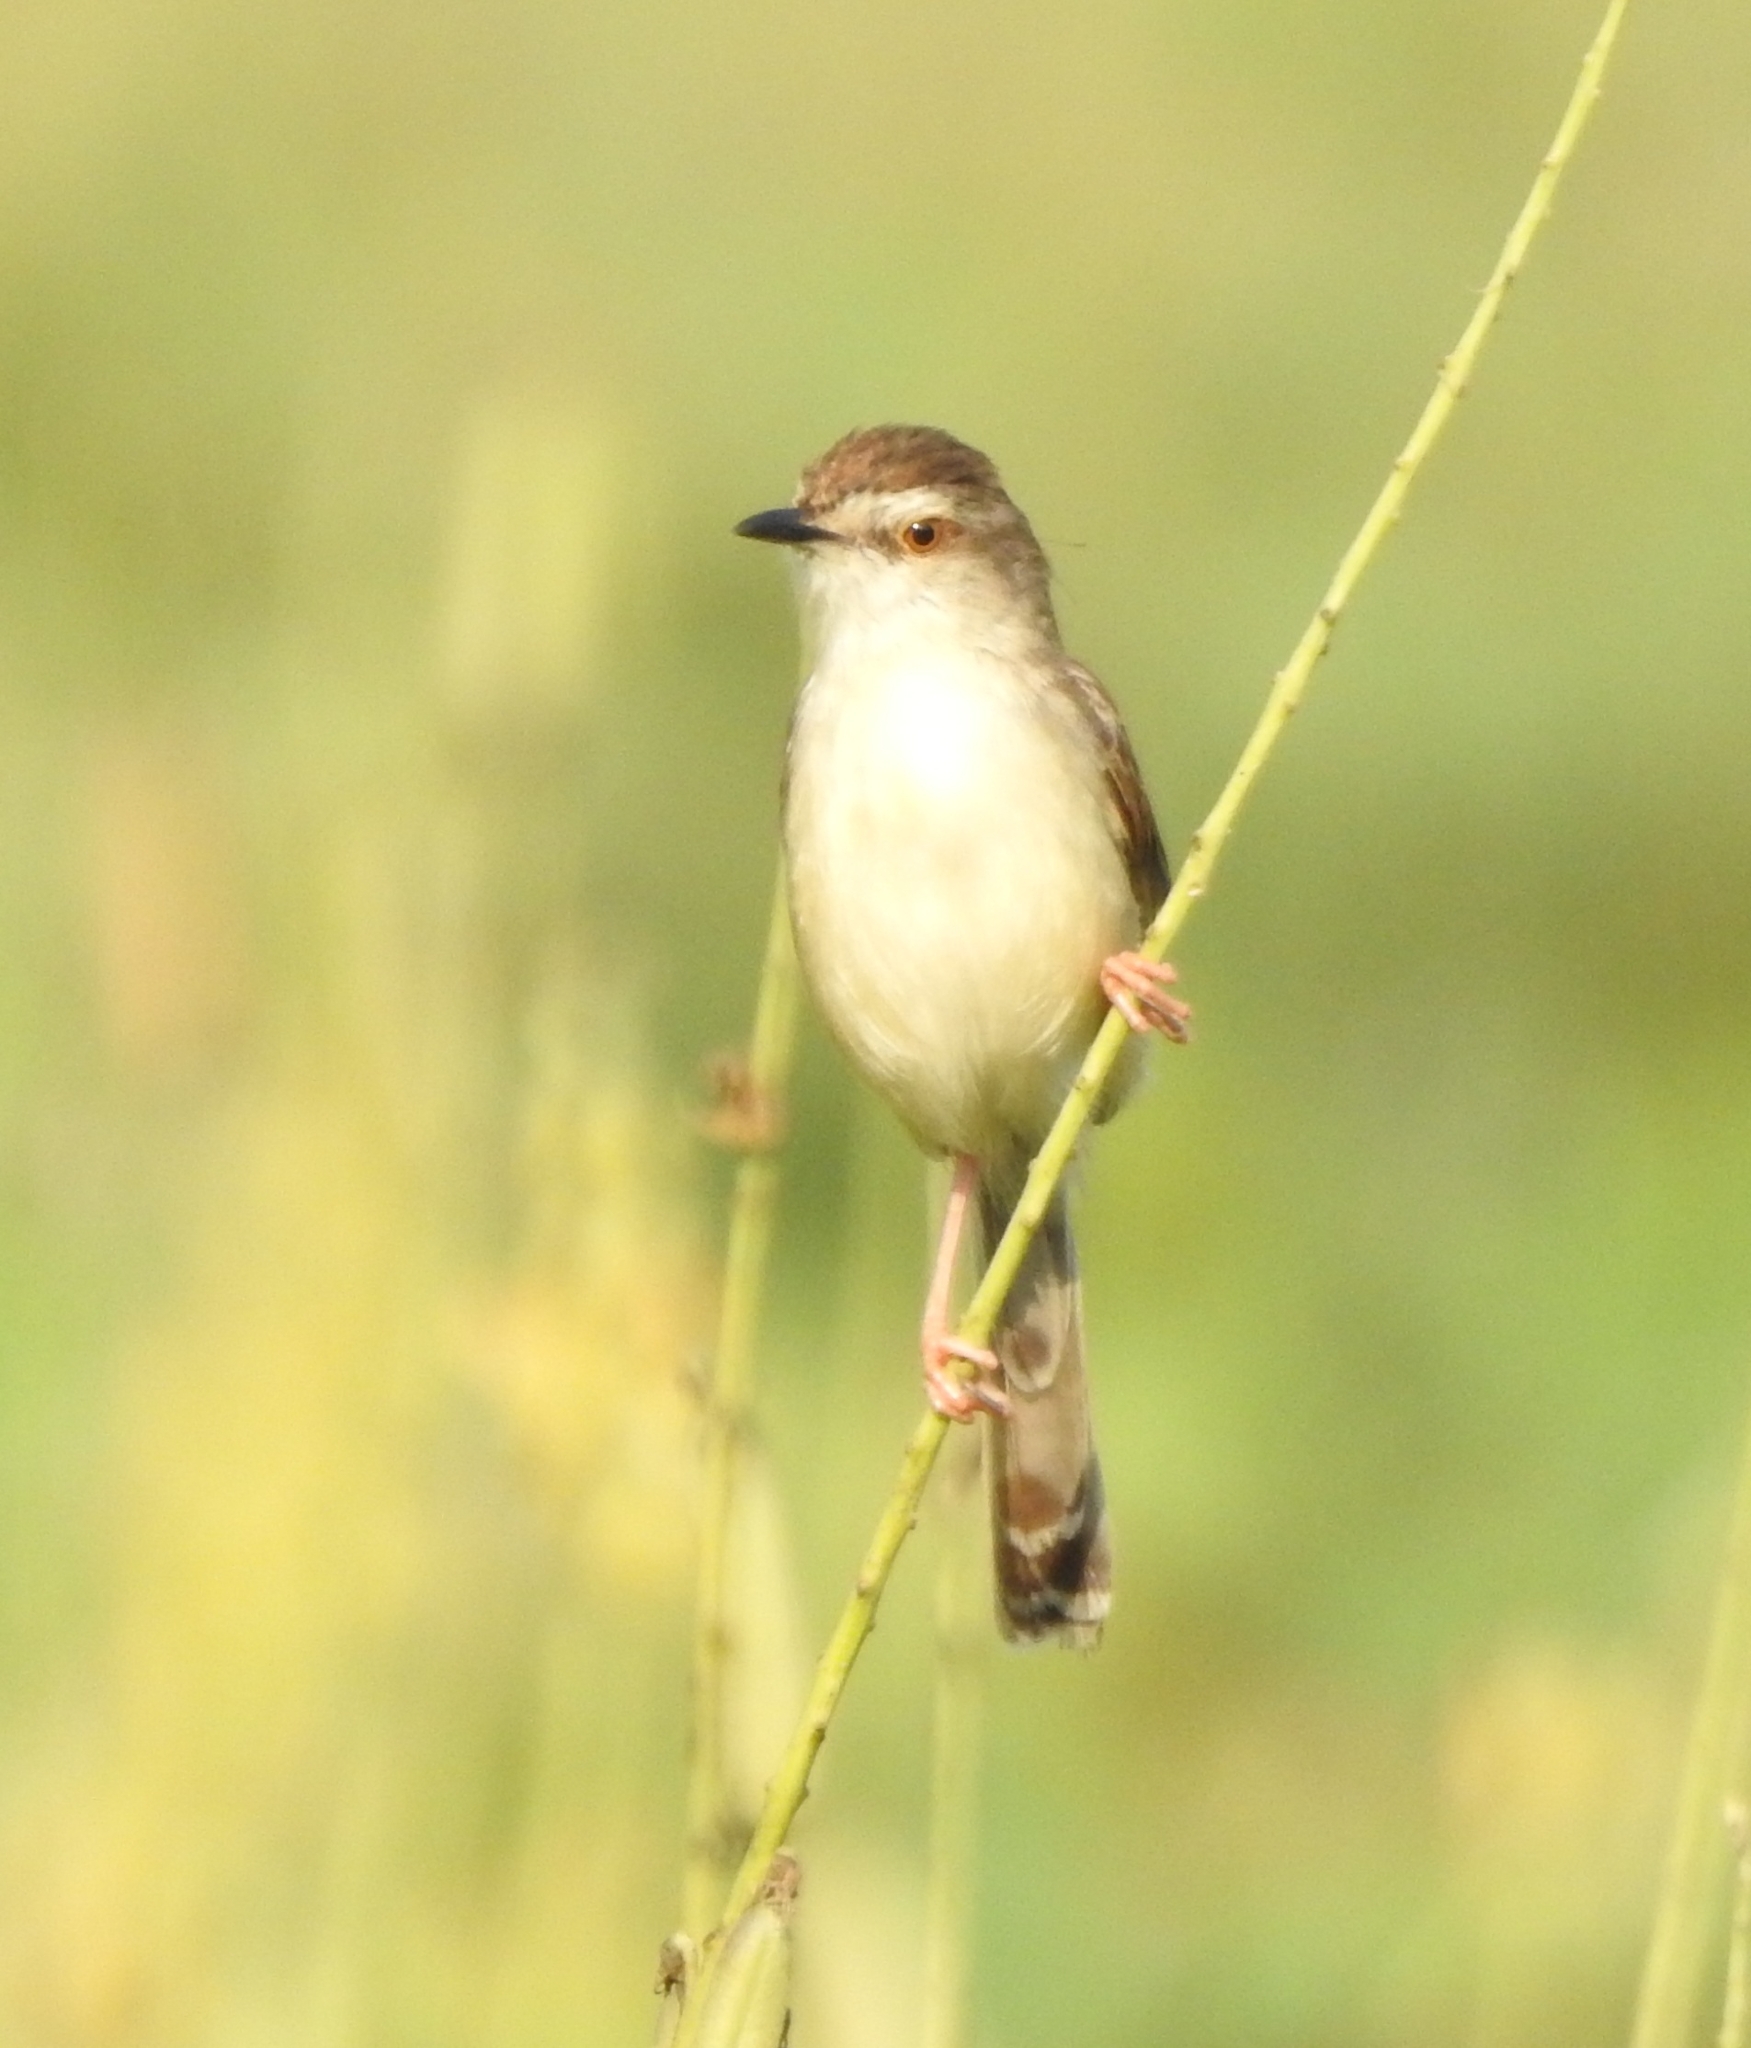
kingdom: Animalia
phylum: Chordata
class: Aves
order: Passeriformes
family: Cisticolidae
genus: Prinia
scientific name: Prinia inornata
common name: Plain prinia
